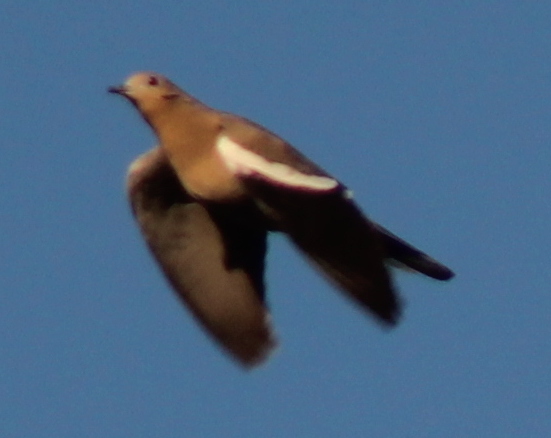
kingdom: Animalia
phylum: Chordata
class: Aves
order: Columbiformes
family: Columbidae
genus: Zenaida
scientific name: Zenaida asiatica
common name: White-winged dove
